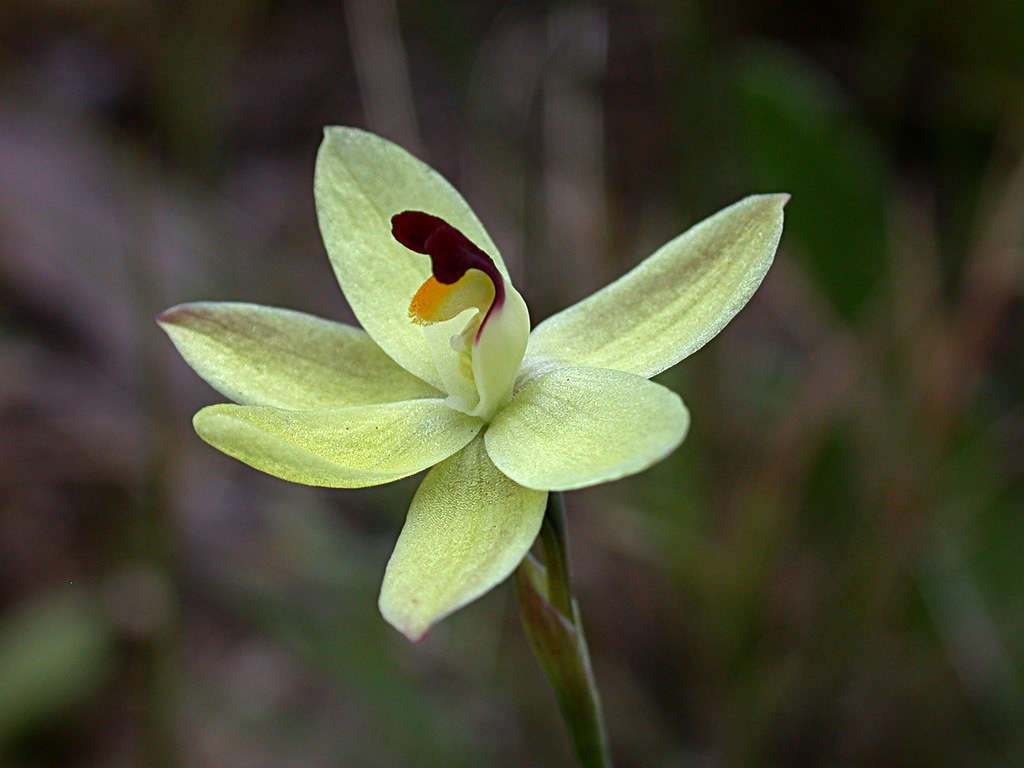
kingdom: Plantae
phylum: Tracheophyta
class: Liliopsida
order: Asparagales
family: Orchidaceae
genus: Thelymitra
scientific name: Thelymitra antennifera
